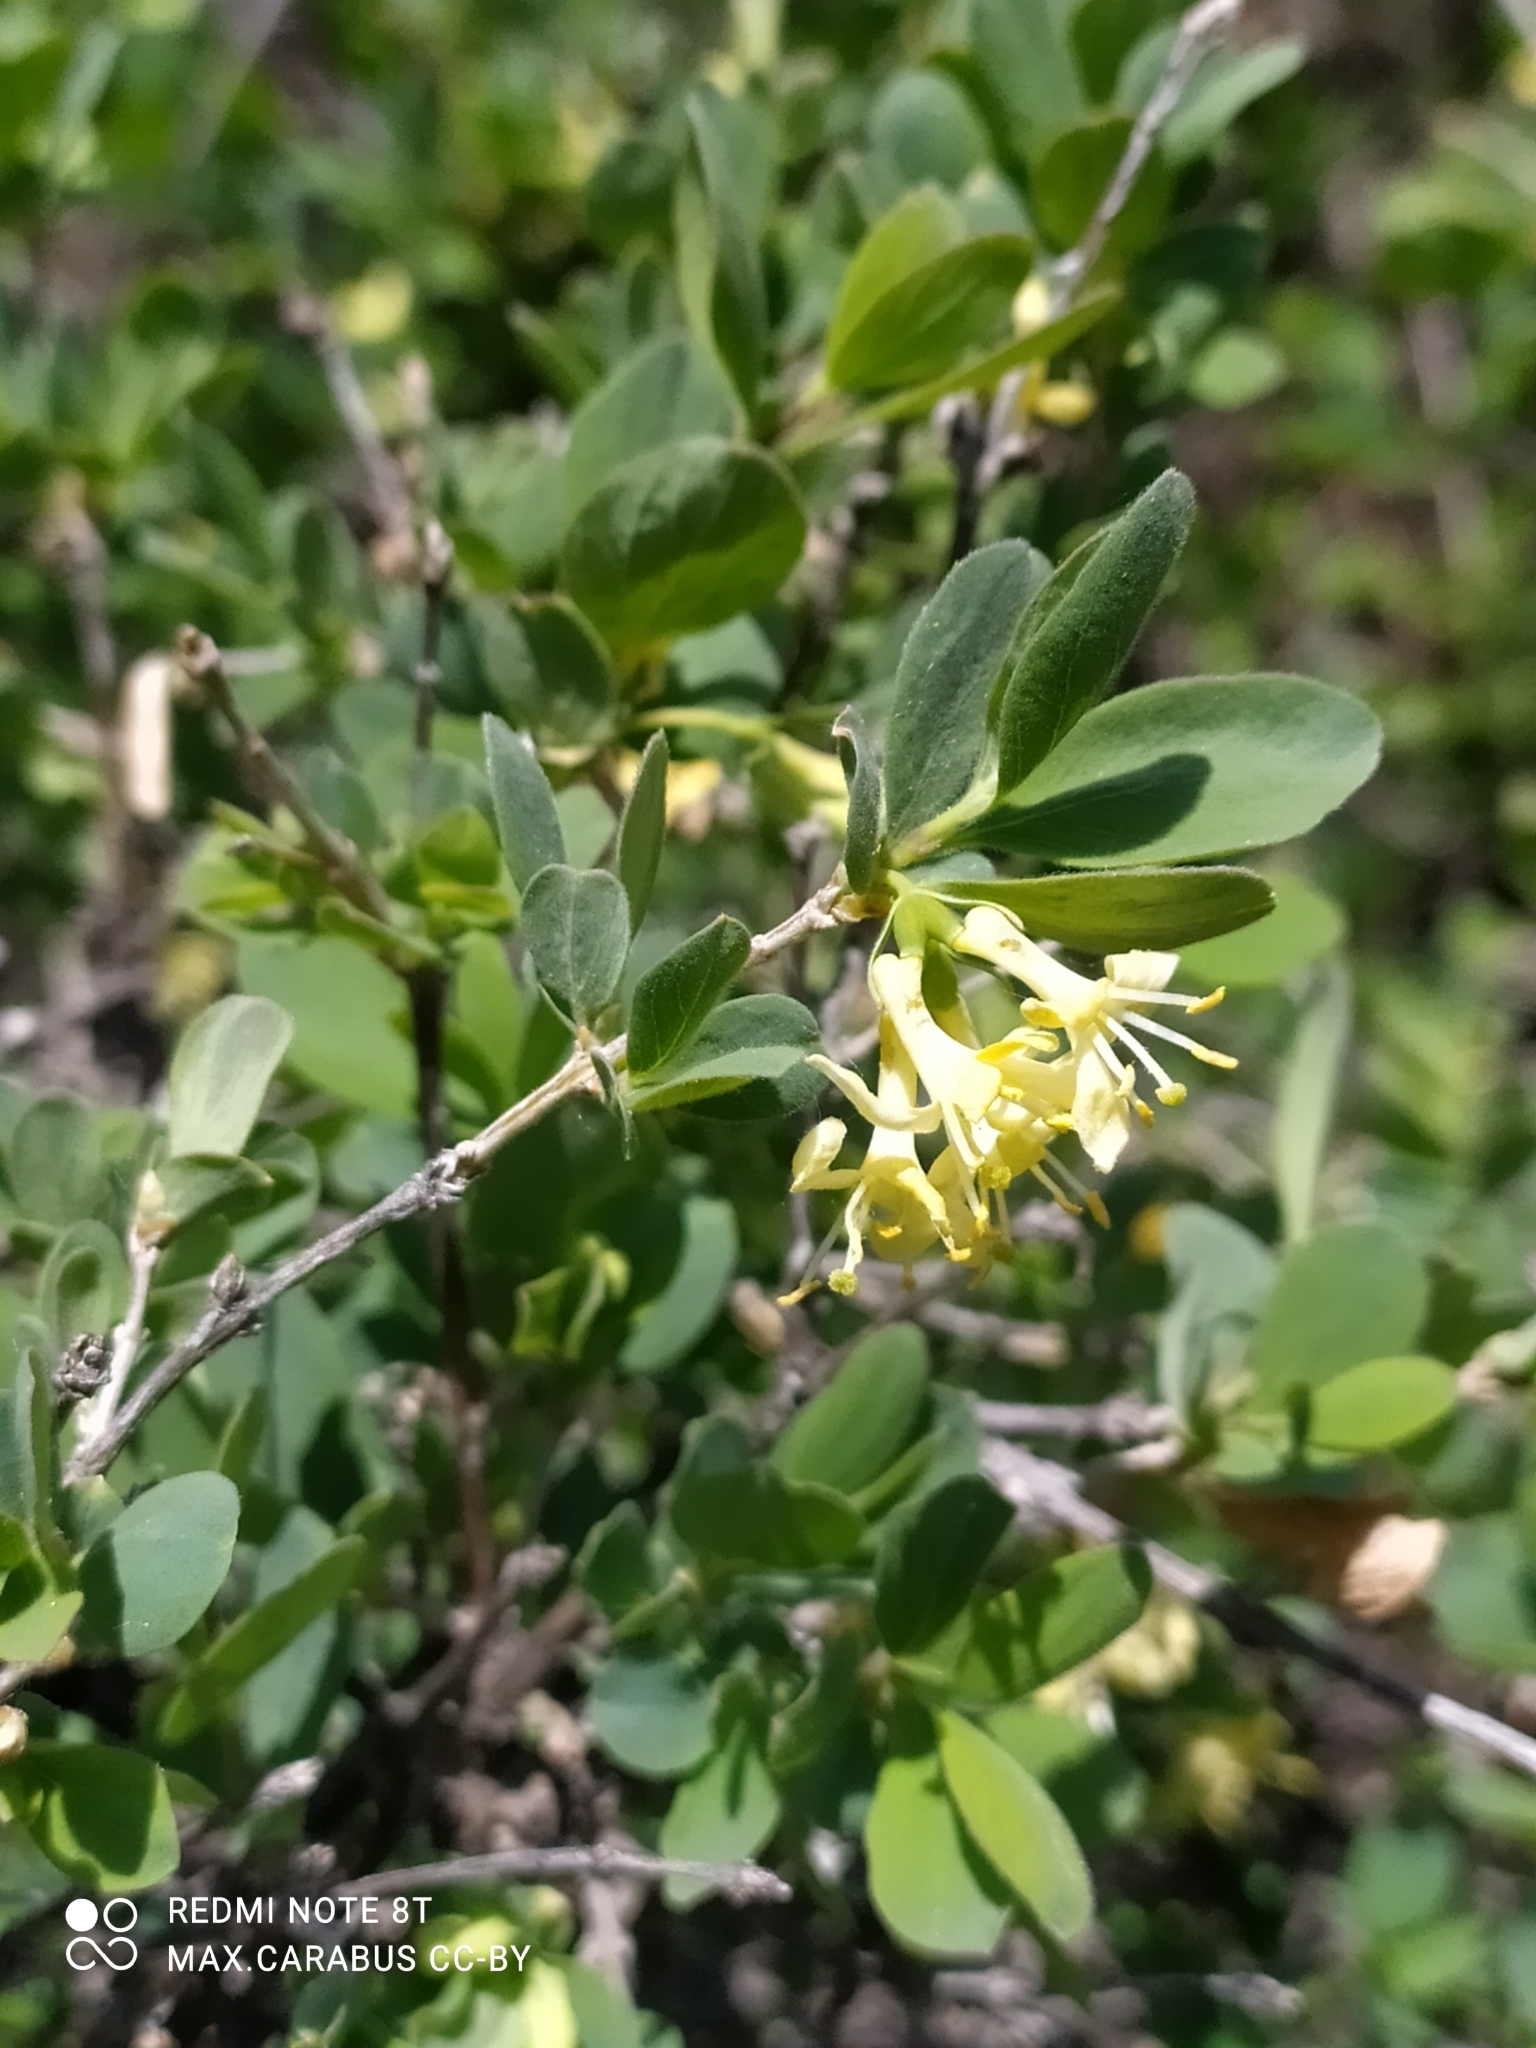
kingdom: Plantae
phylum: Tracheophyta
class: Magnoliopsida
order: Dipsacales
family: Caprifoliaceae
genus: Lonicera
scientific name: Lonicera microphylla
